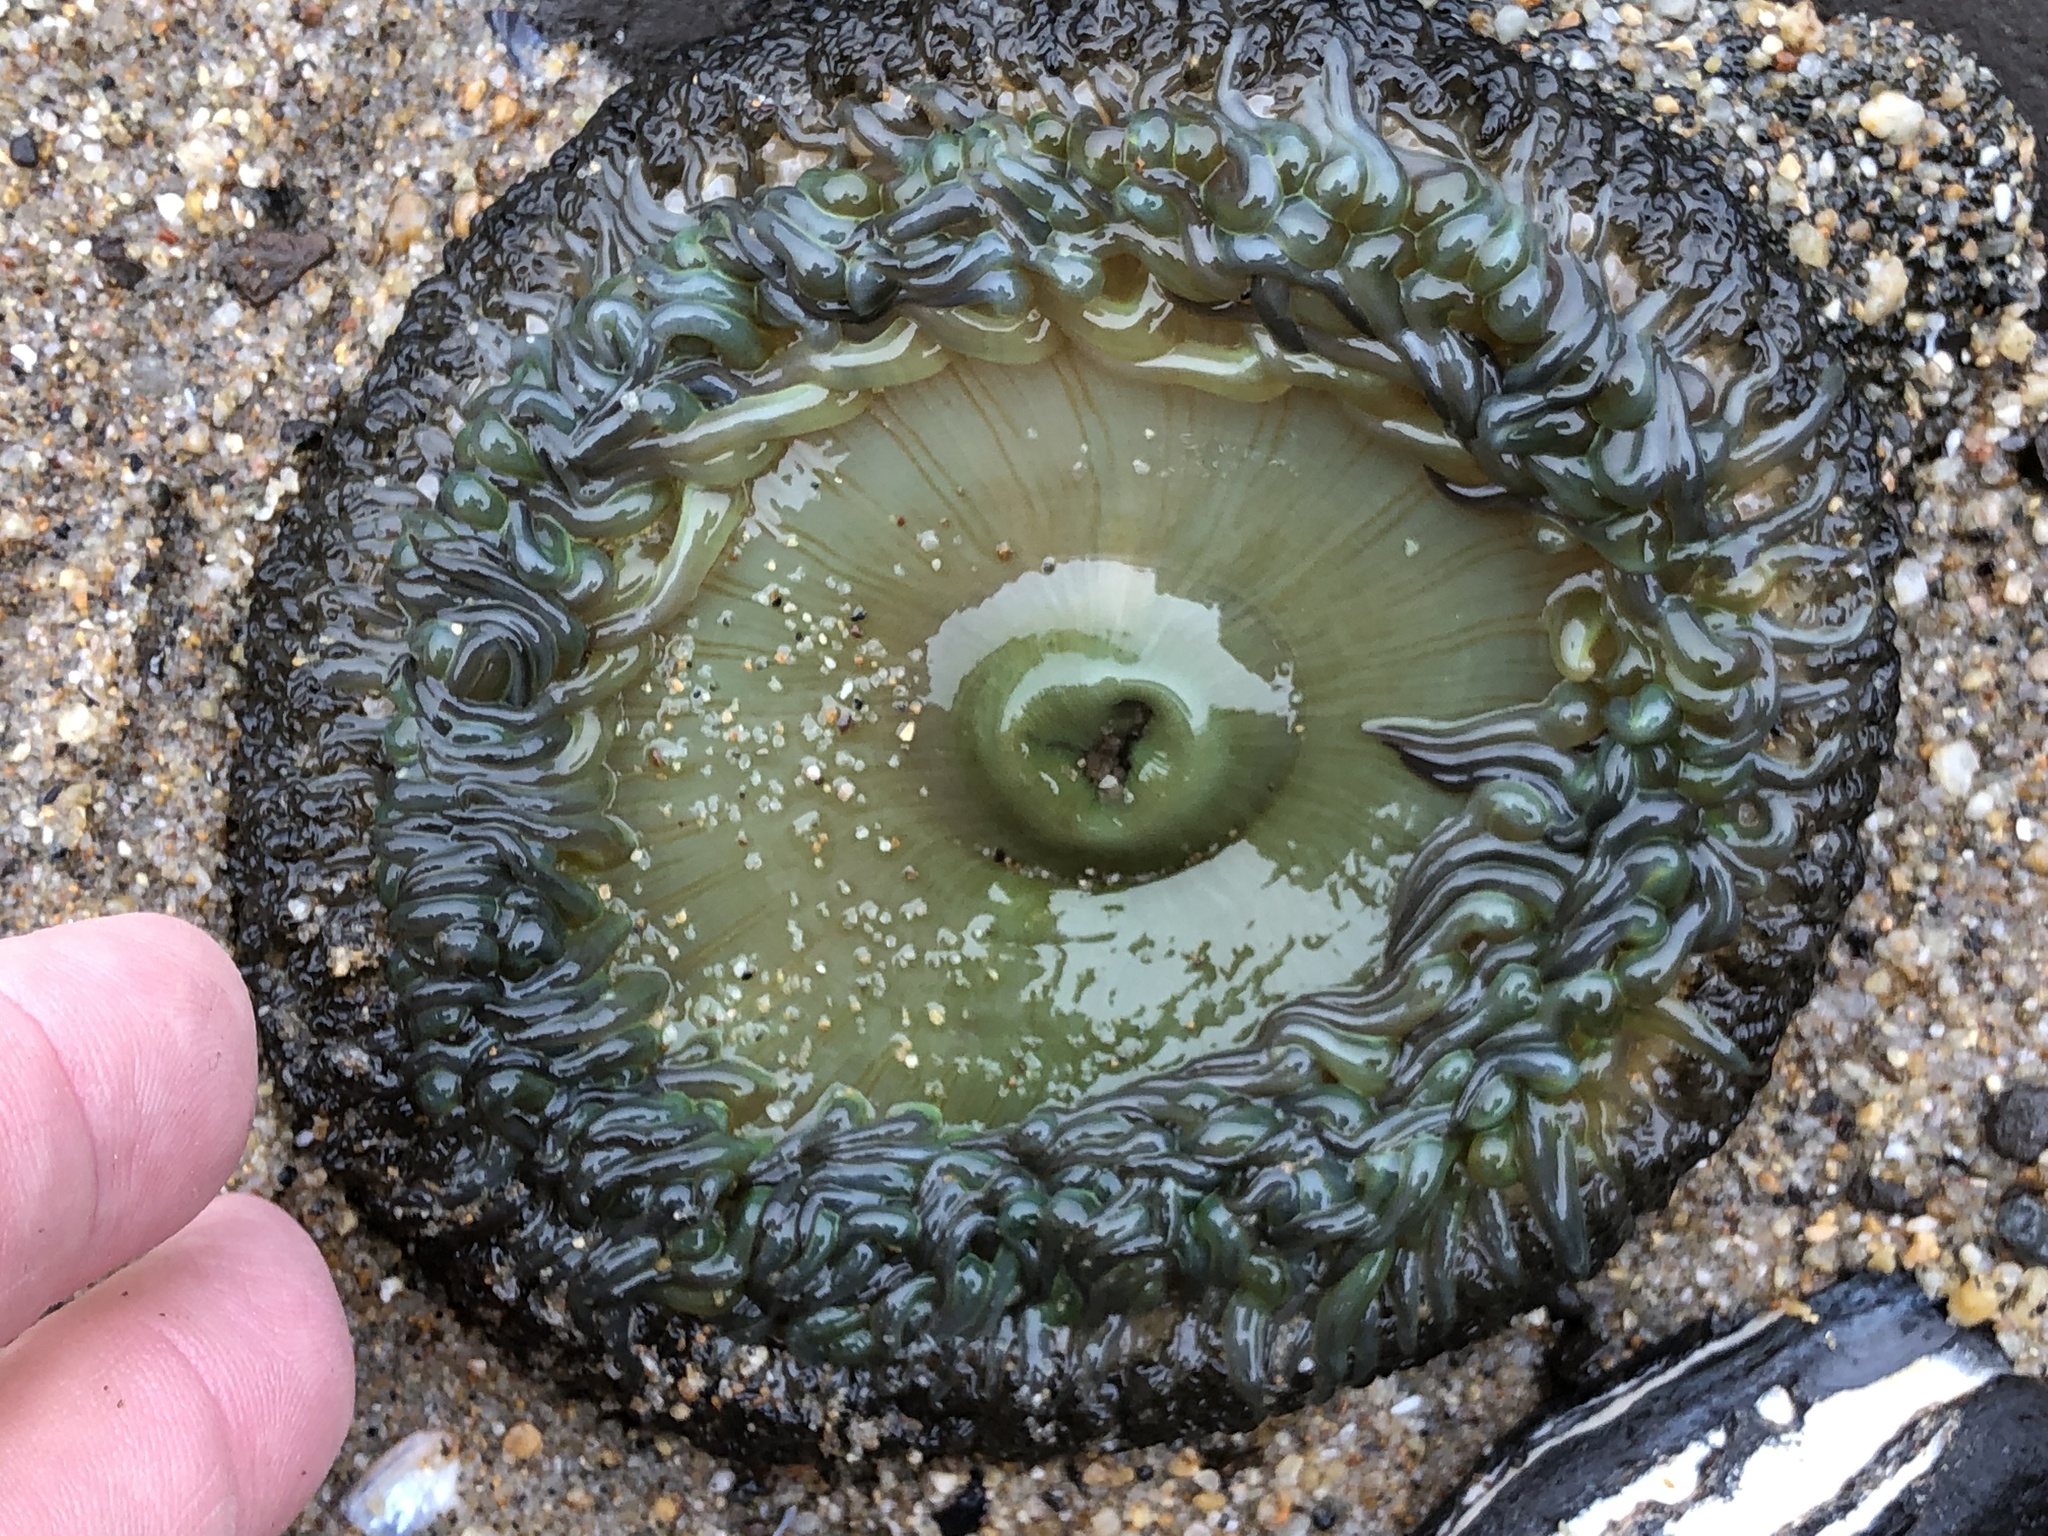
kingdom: Animalia
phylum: Cnidaria
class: Anthozoa
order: Actiniaria
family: Actiniidae
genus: Anthopleura
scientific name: Anthopleura xanthogrammica
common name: Giant green anemone
